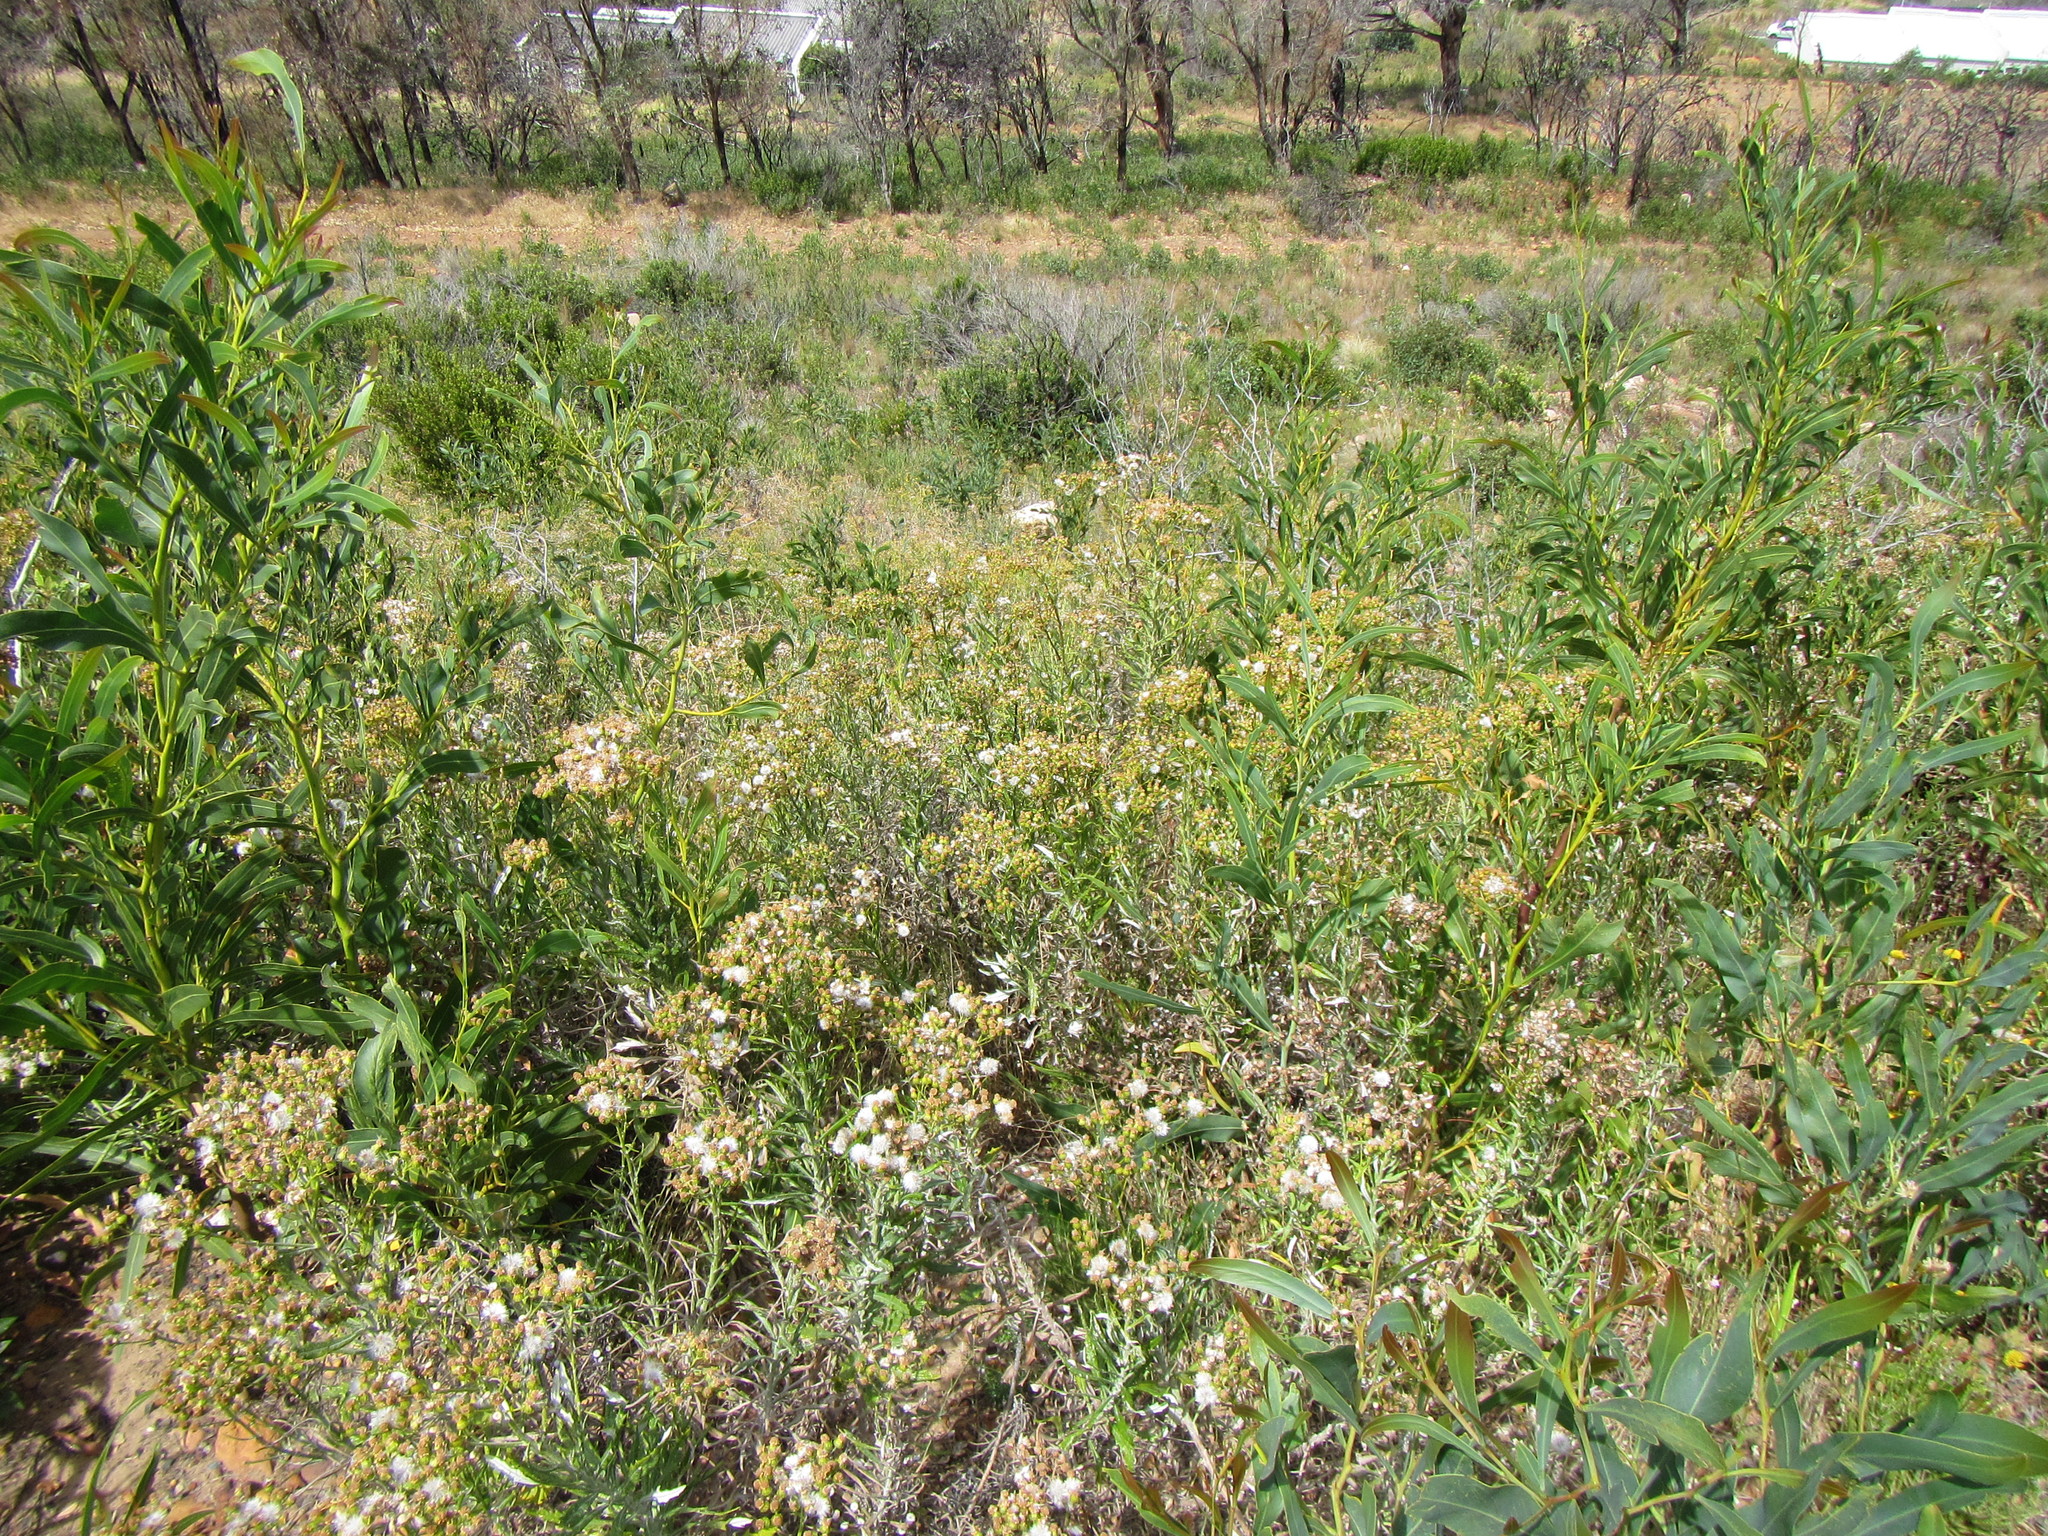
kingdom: Plantae
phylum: Tracheophyta
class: Magnoliopsida
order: Asterales
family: Asteraceae
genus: Senecio
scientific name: Senecio pterophorus
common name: Shoddy ragwort
